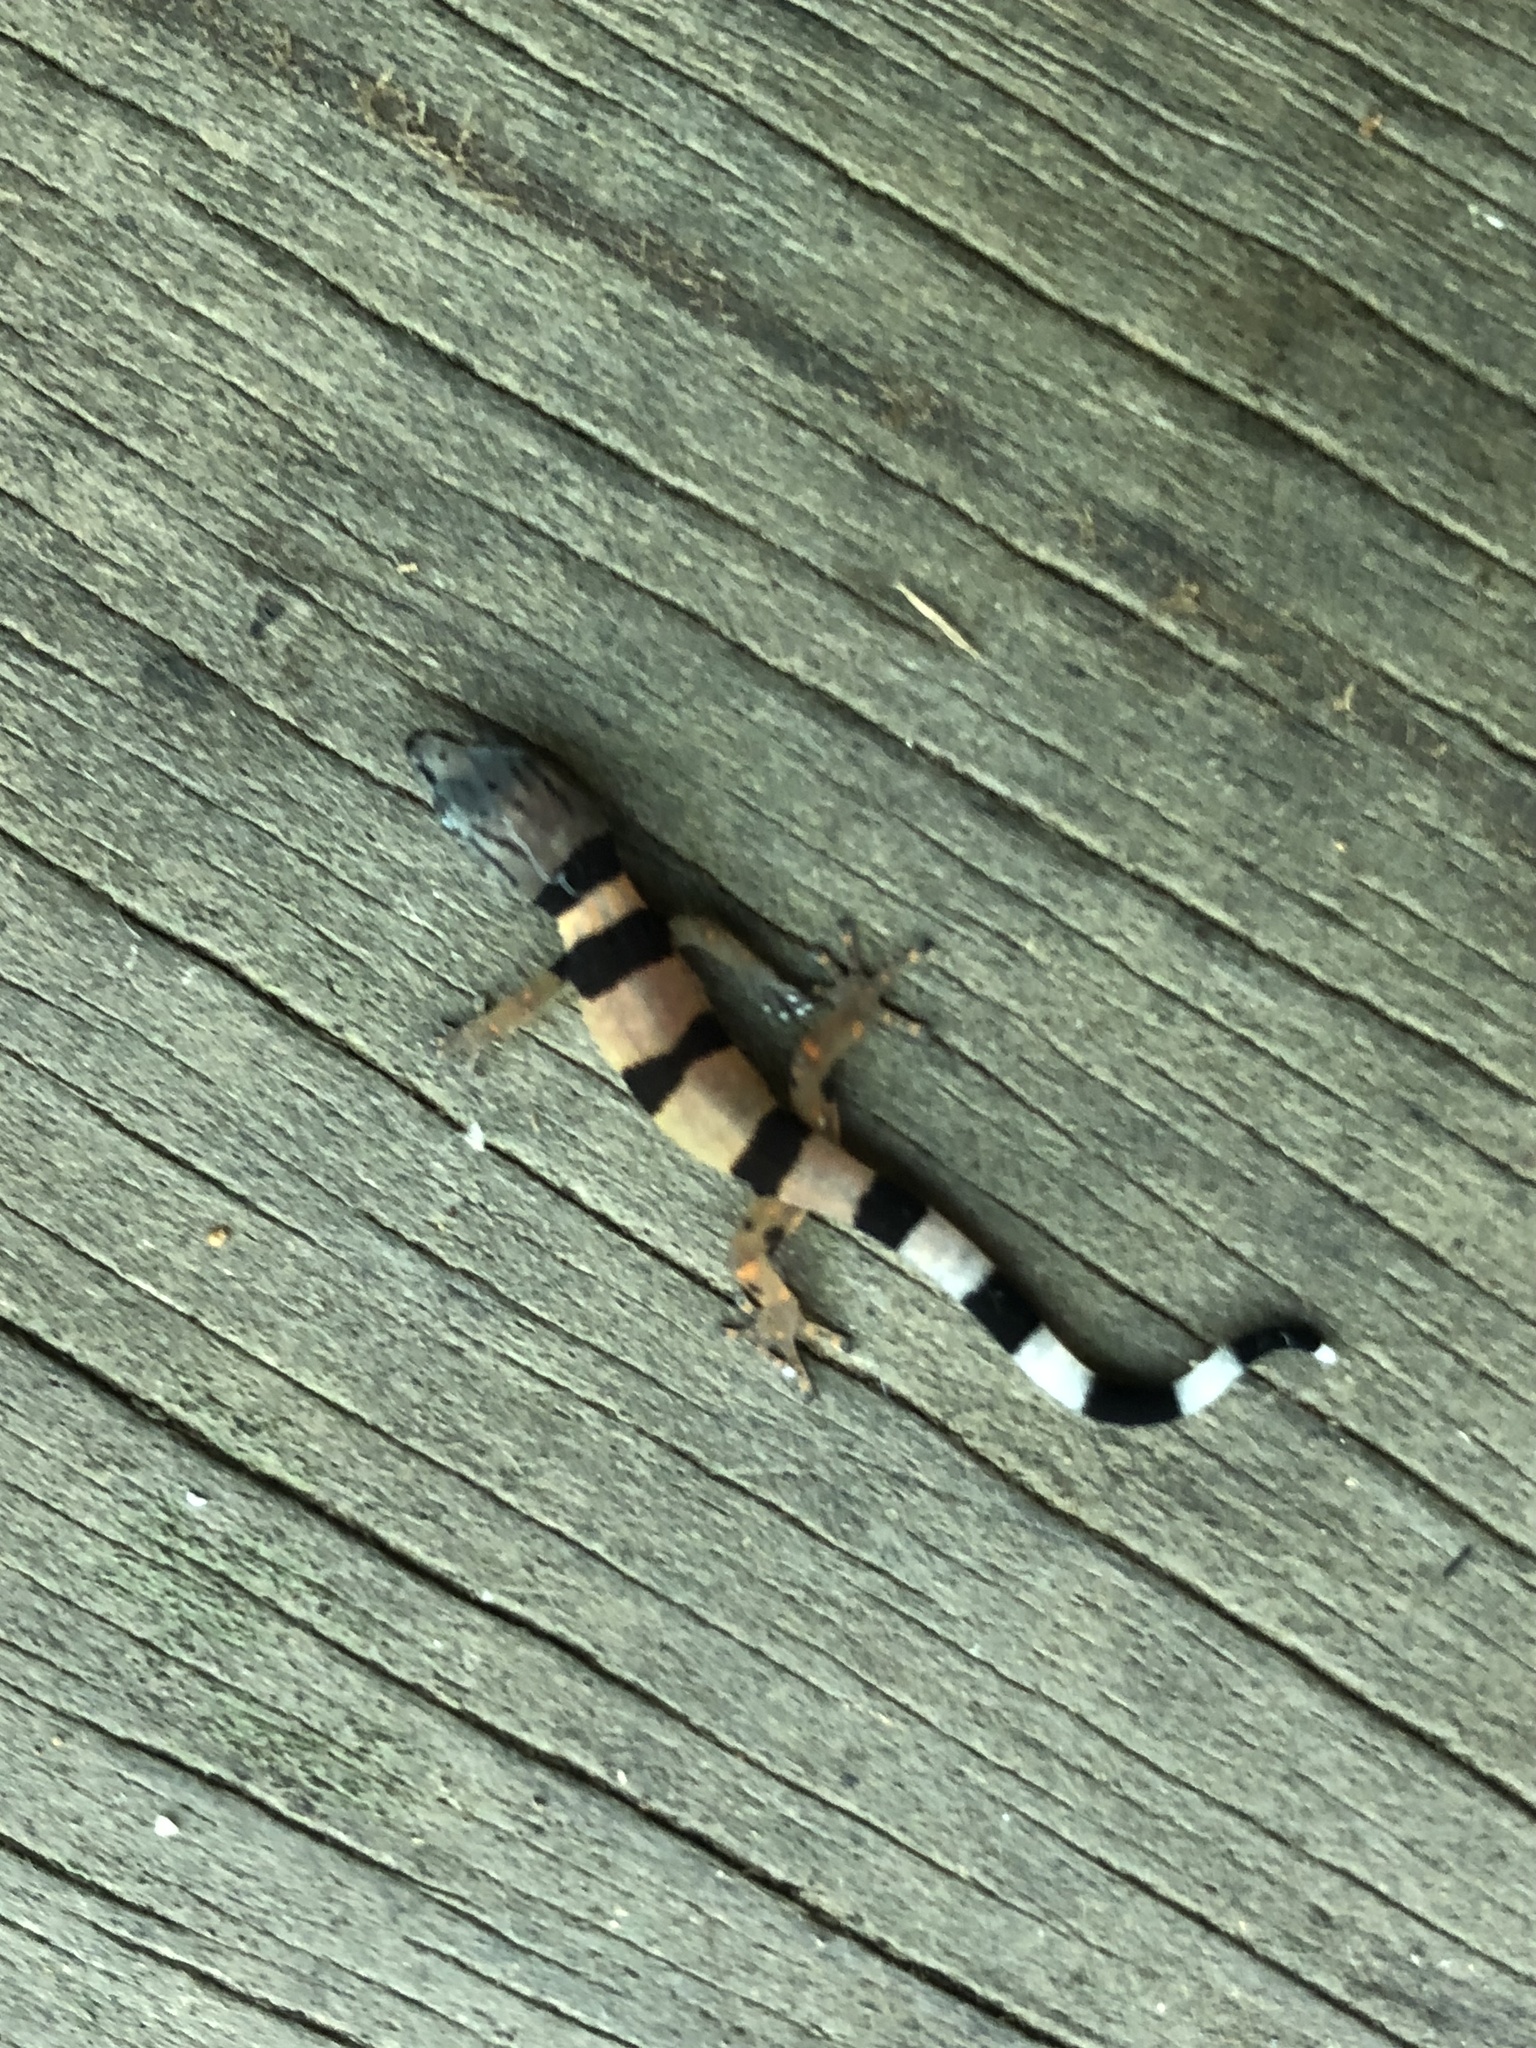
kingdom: Animalia
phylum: Chordata
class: Squamata
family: Sphaerodactylidae
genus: Sphaerodactylus
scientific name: Sphaerodactylus homolepis
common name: Caribbean least gecko
